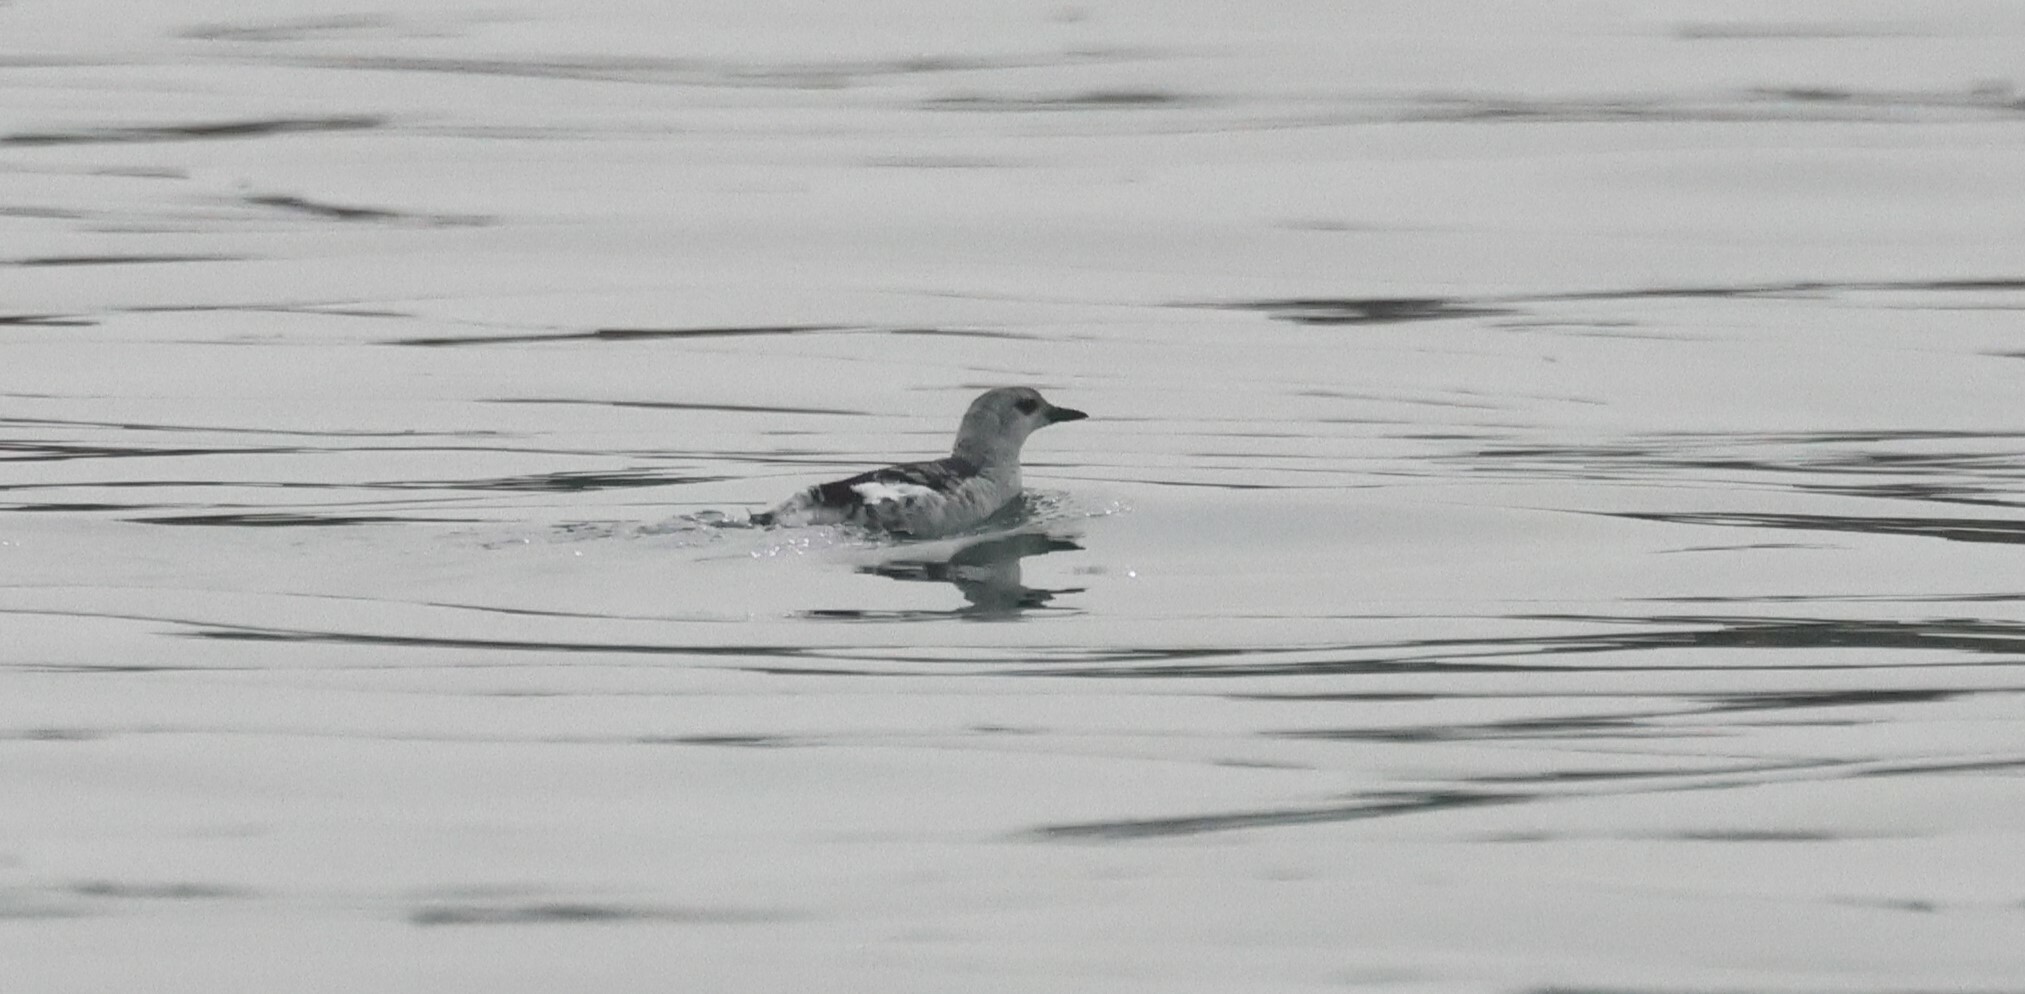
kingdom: Animalia
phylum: Chordata
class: Aves
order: Charadriiformes
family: Alcidae
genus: Cepphus
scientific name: Cepphus grylle
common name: Black guillemot
